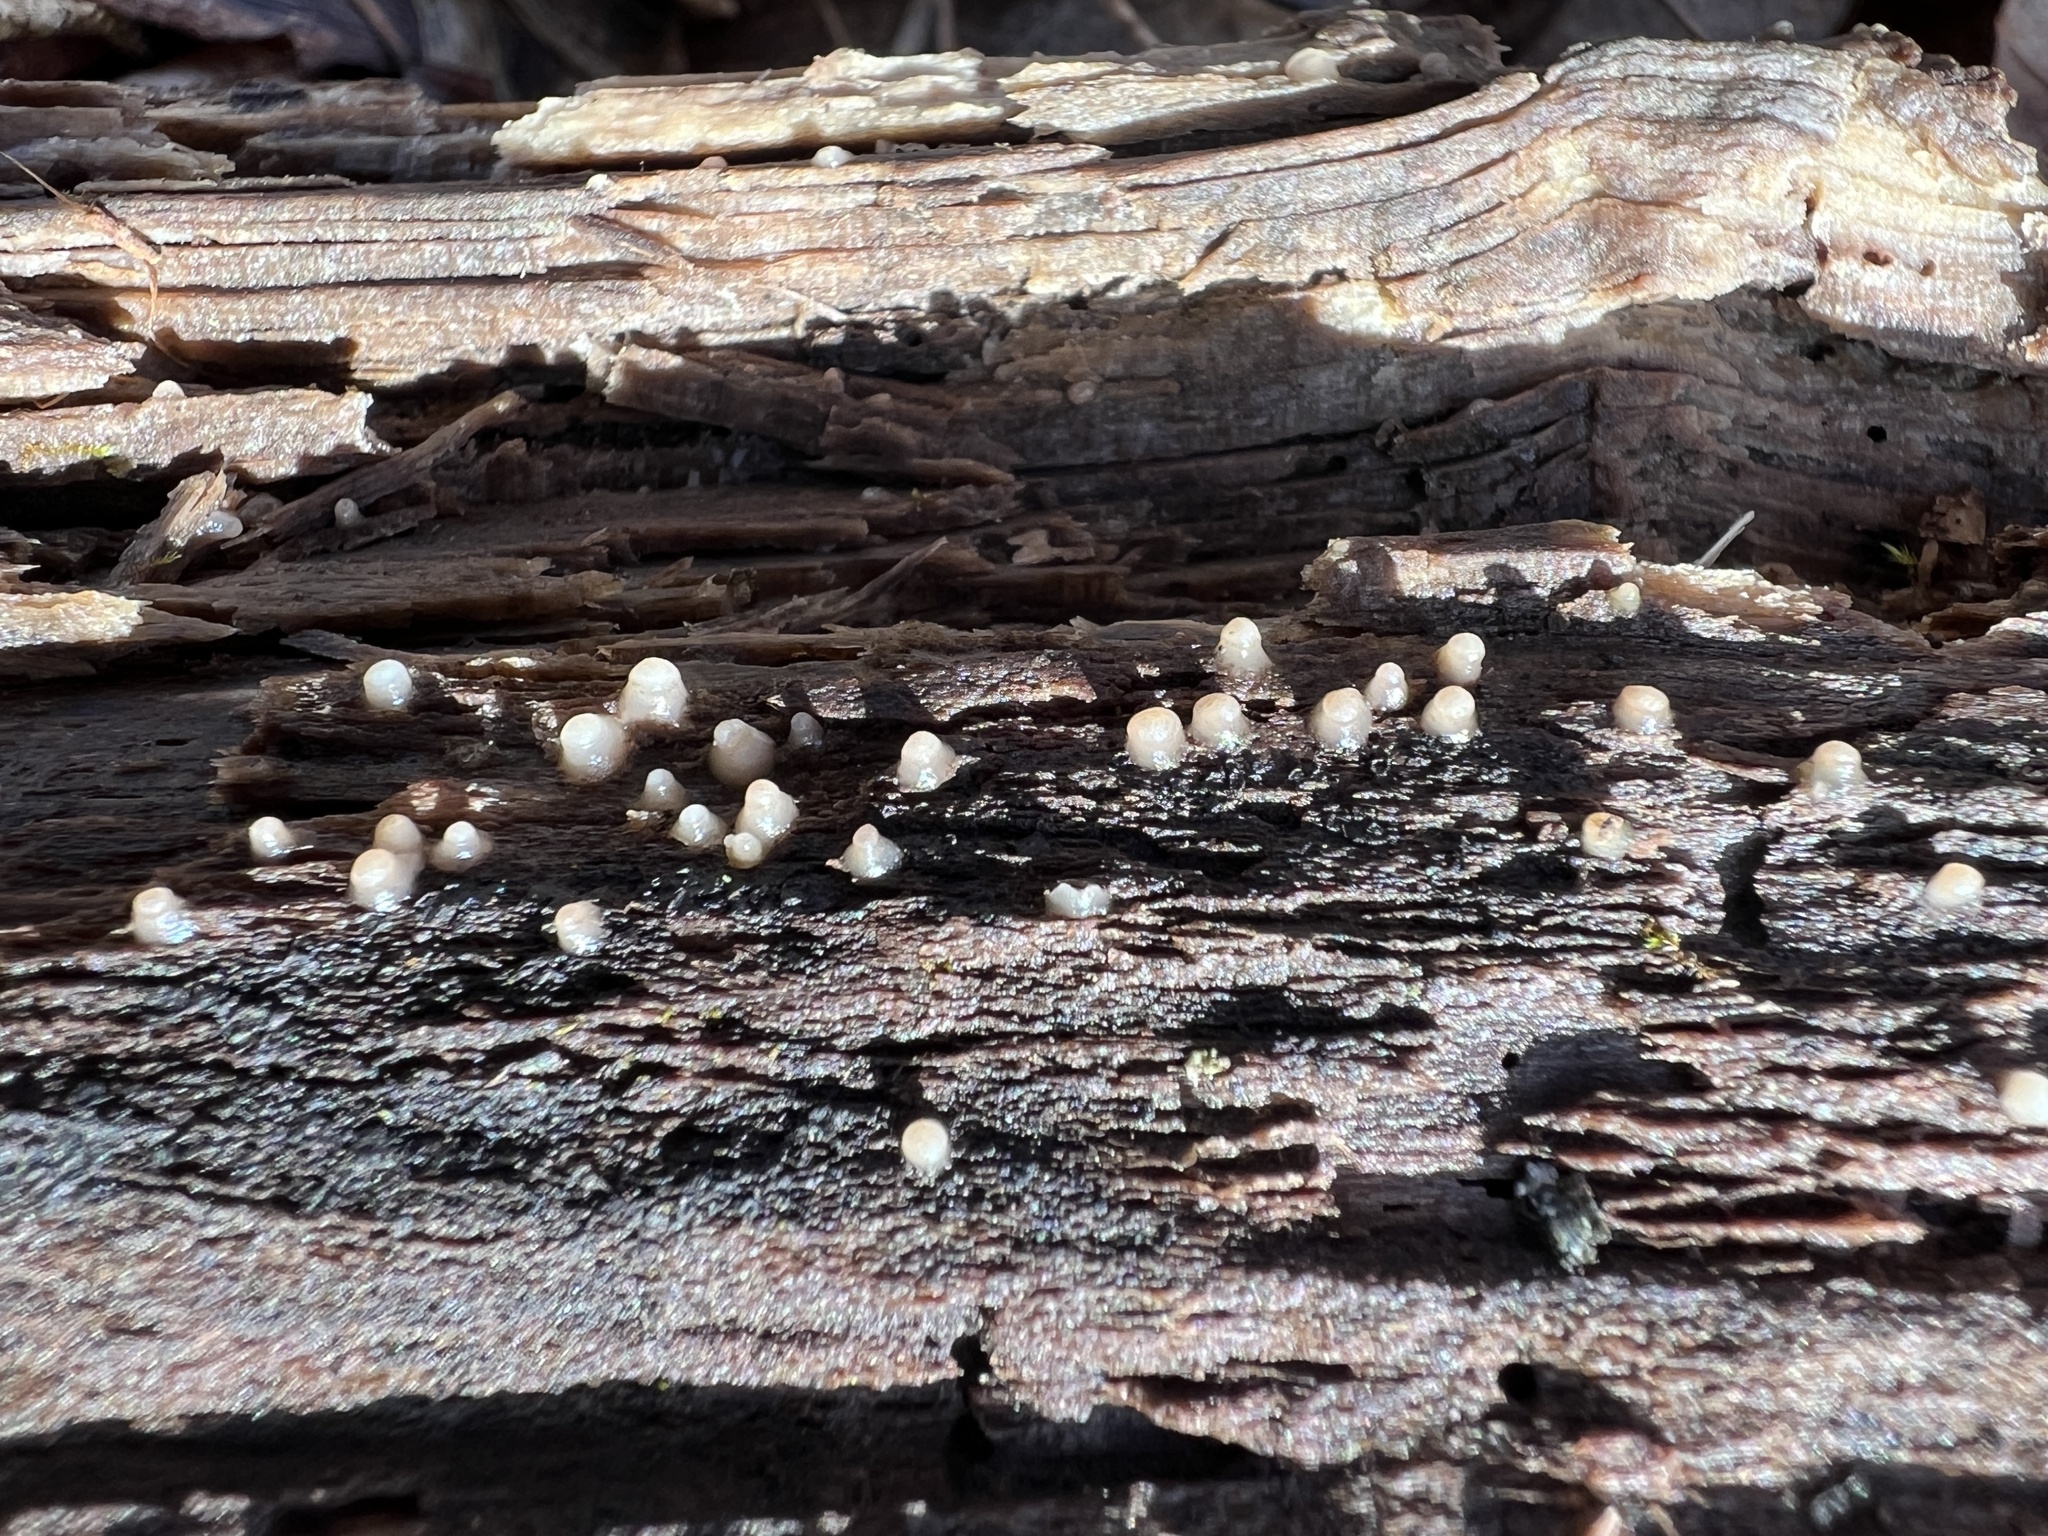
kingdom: Fungi
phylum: Basidiomycota
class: Atractiellomycetes
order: Atractiellales
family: Phleogenaceae
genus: Helicogloea
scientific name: Helicogloea compressa
